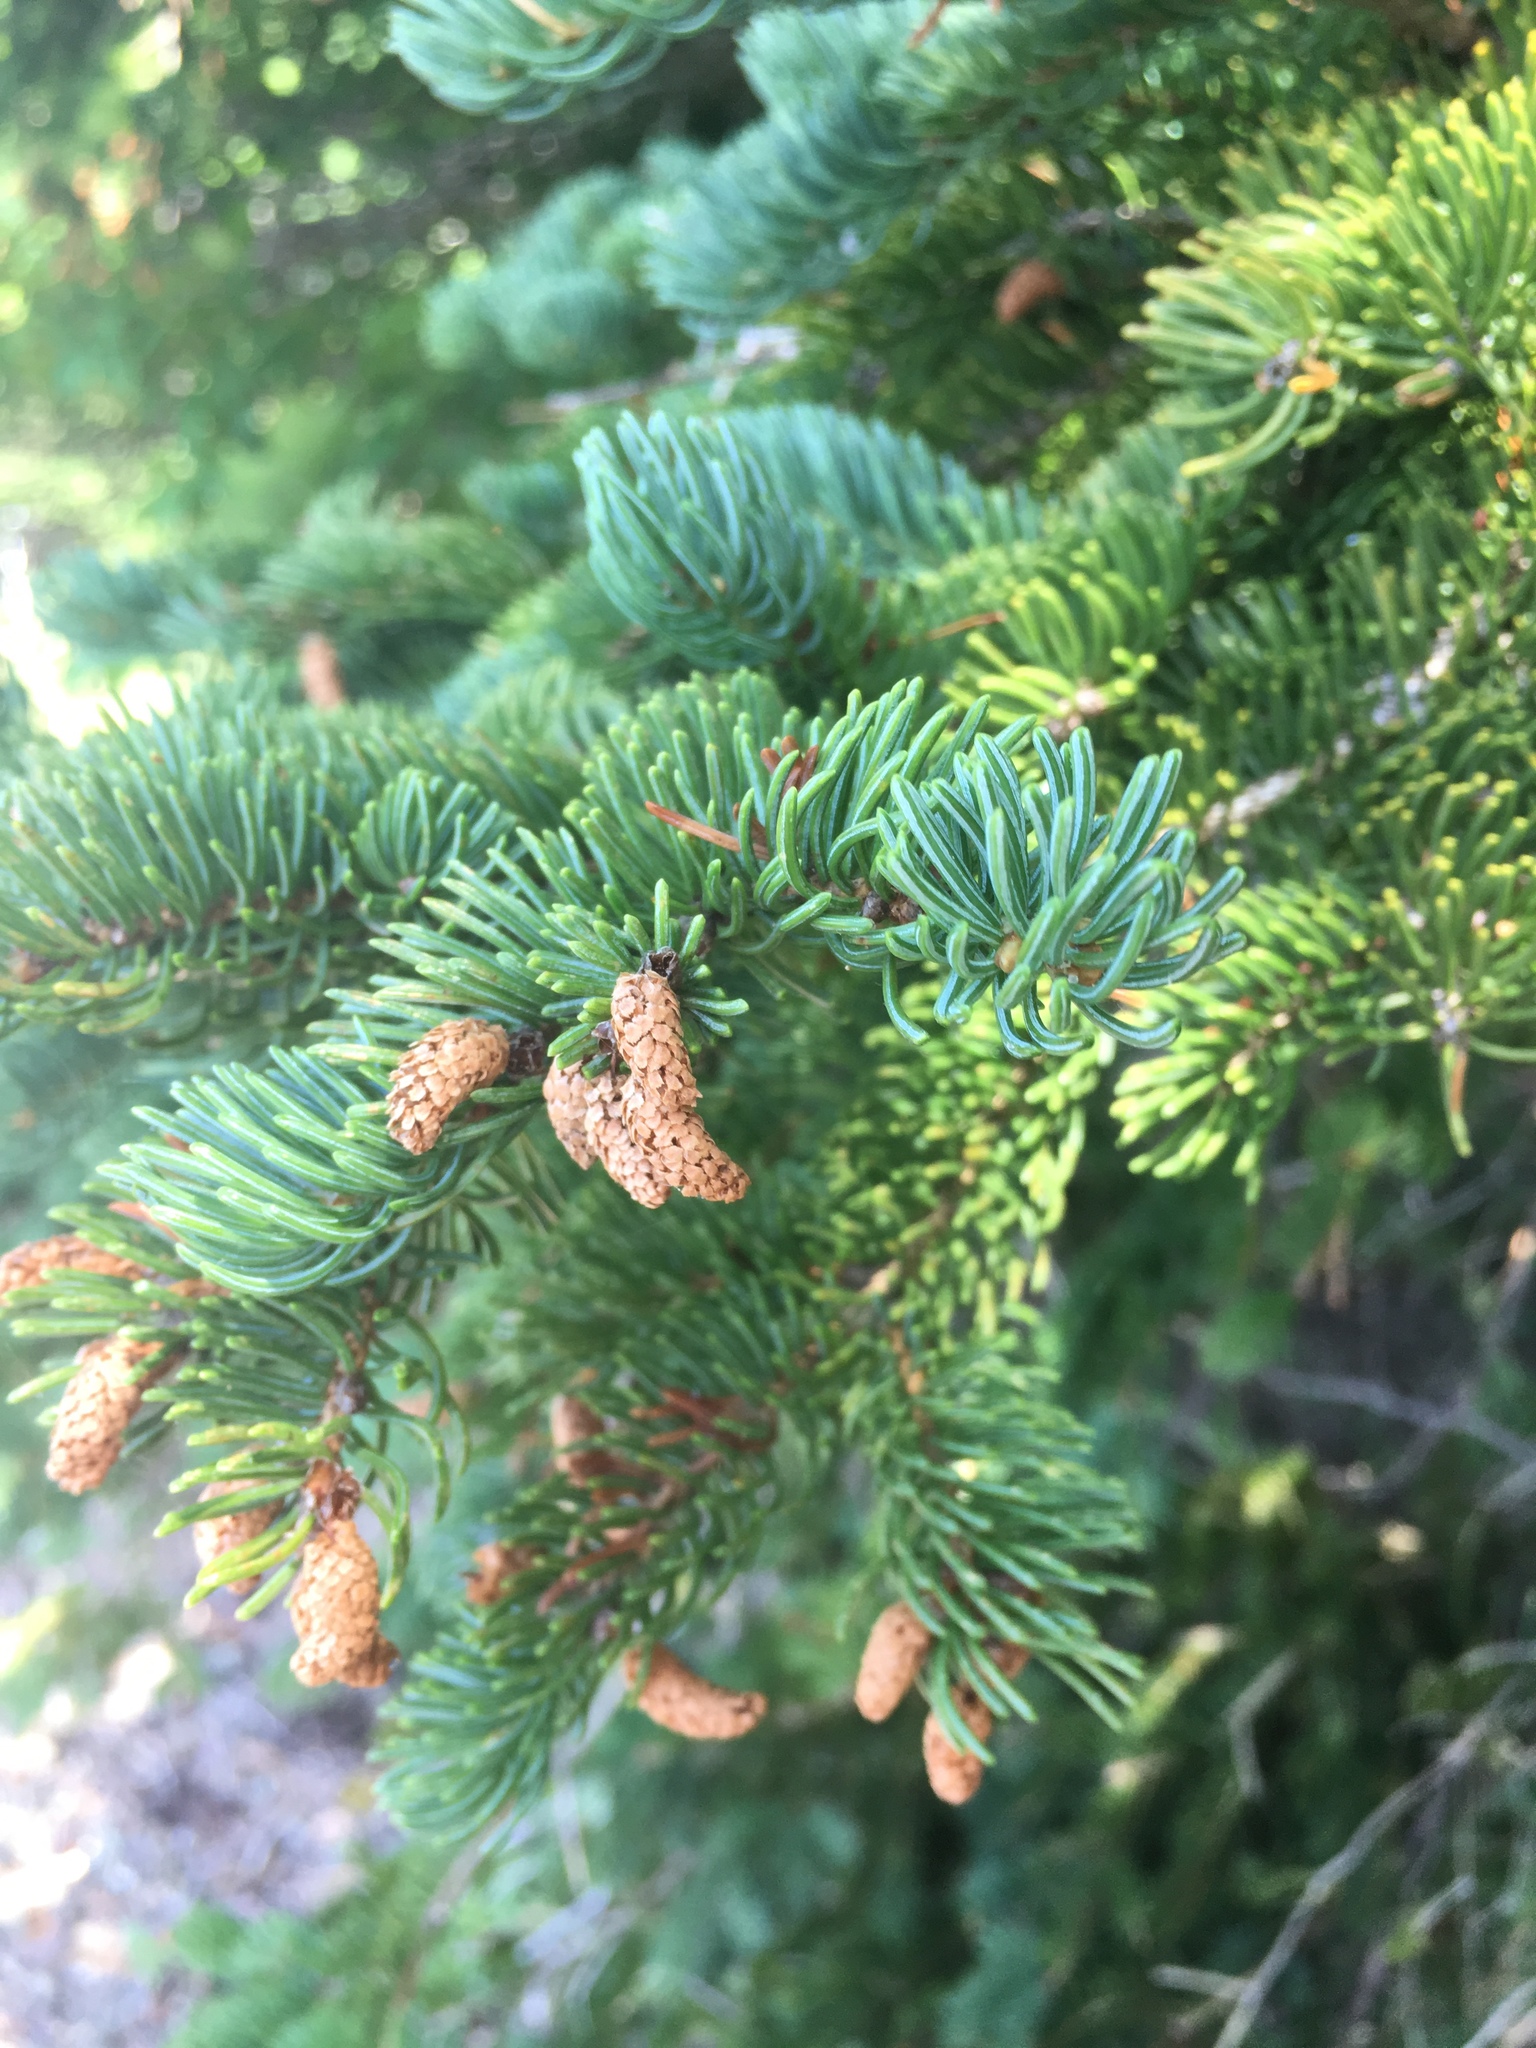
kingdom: Plantae
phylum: Tracheophyta
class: Pinopsida
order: Pinales
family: Pinaceae
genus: Picea
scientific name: Picea glauca
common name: White spruce
